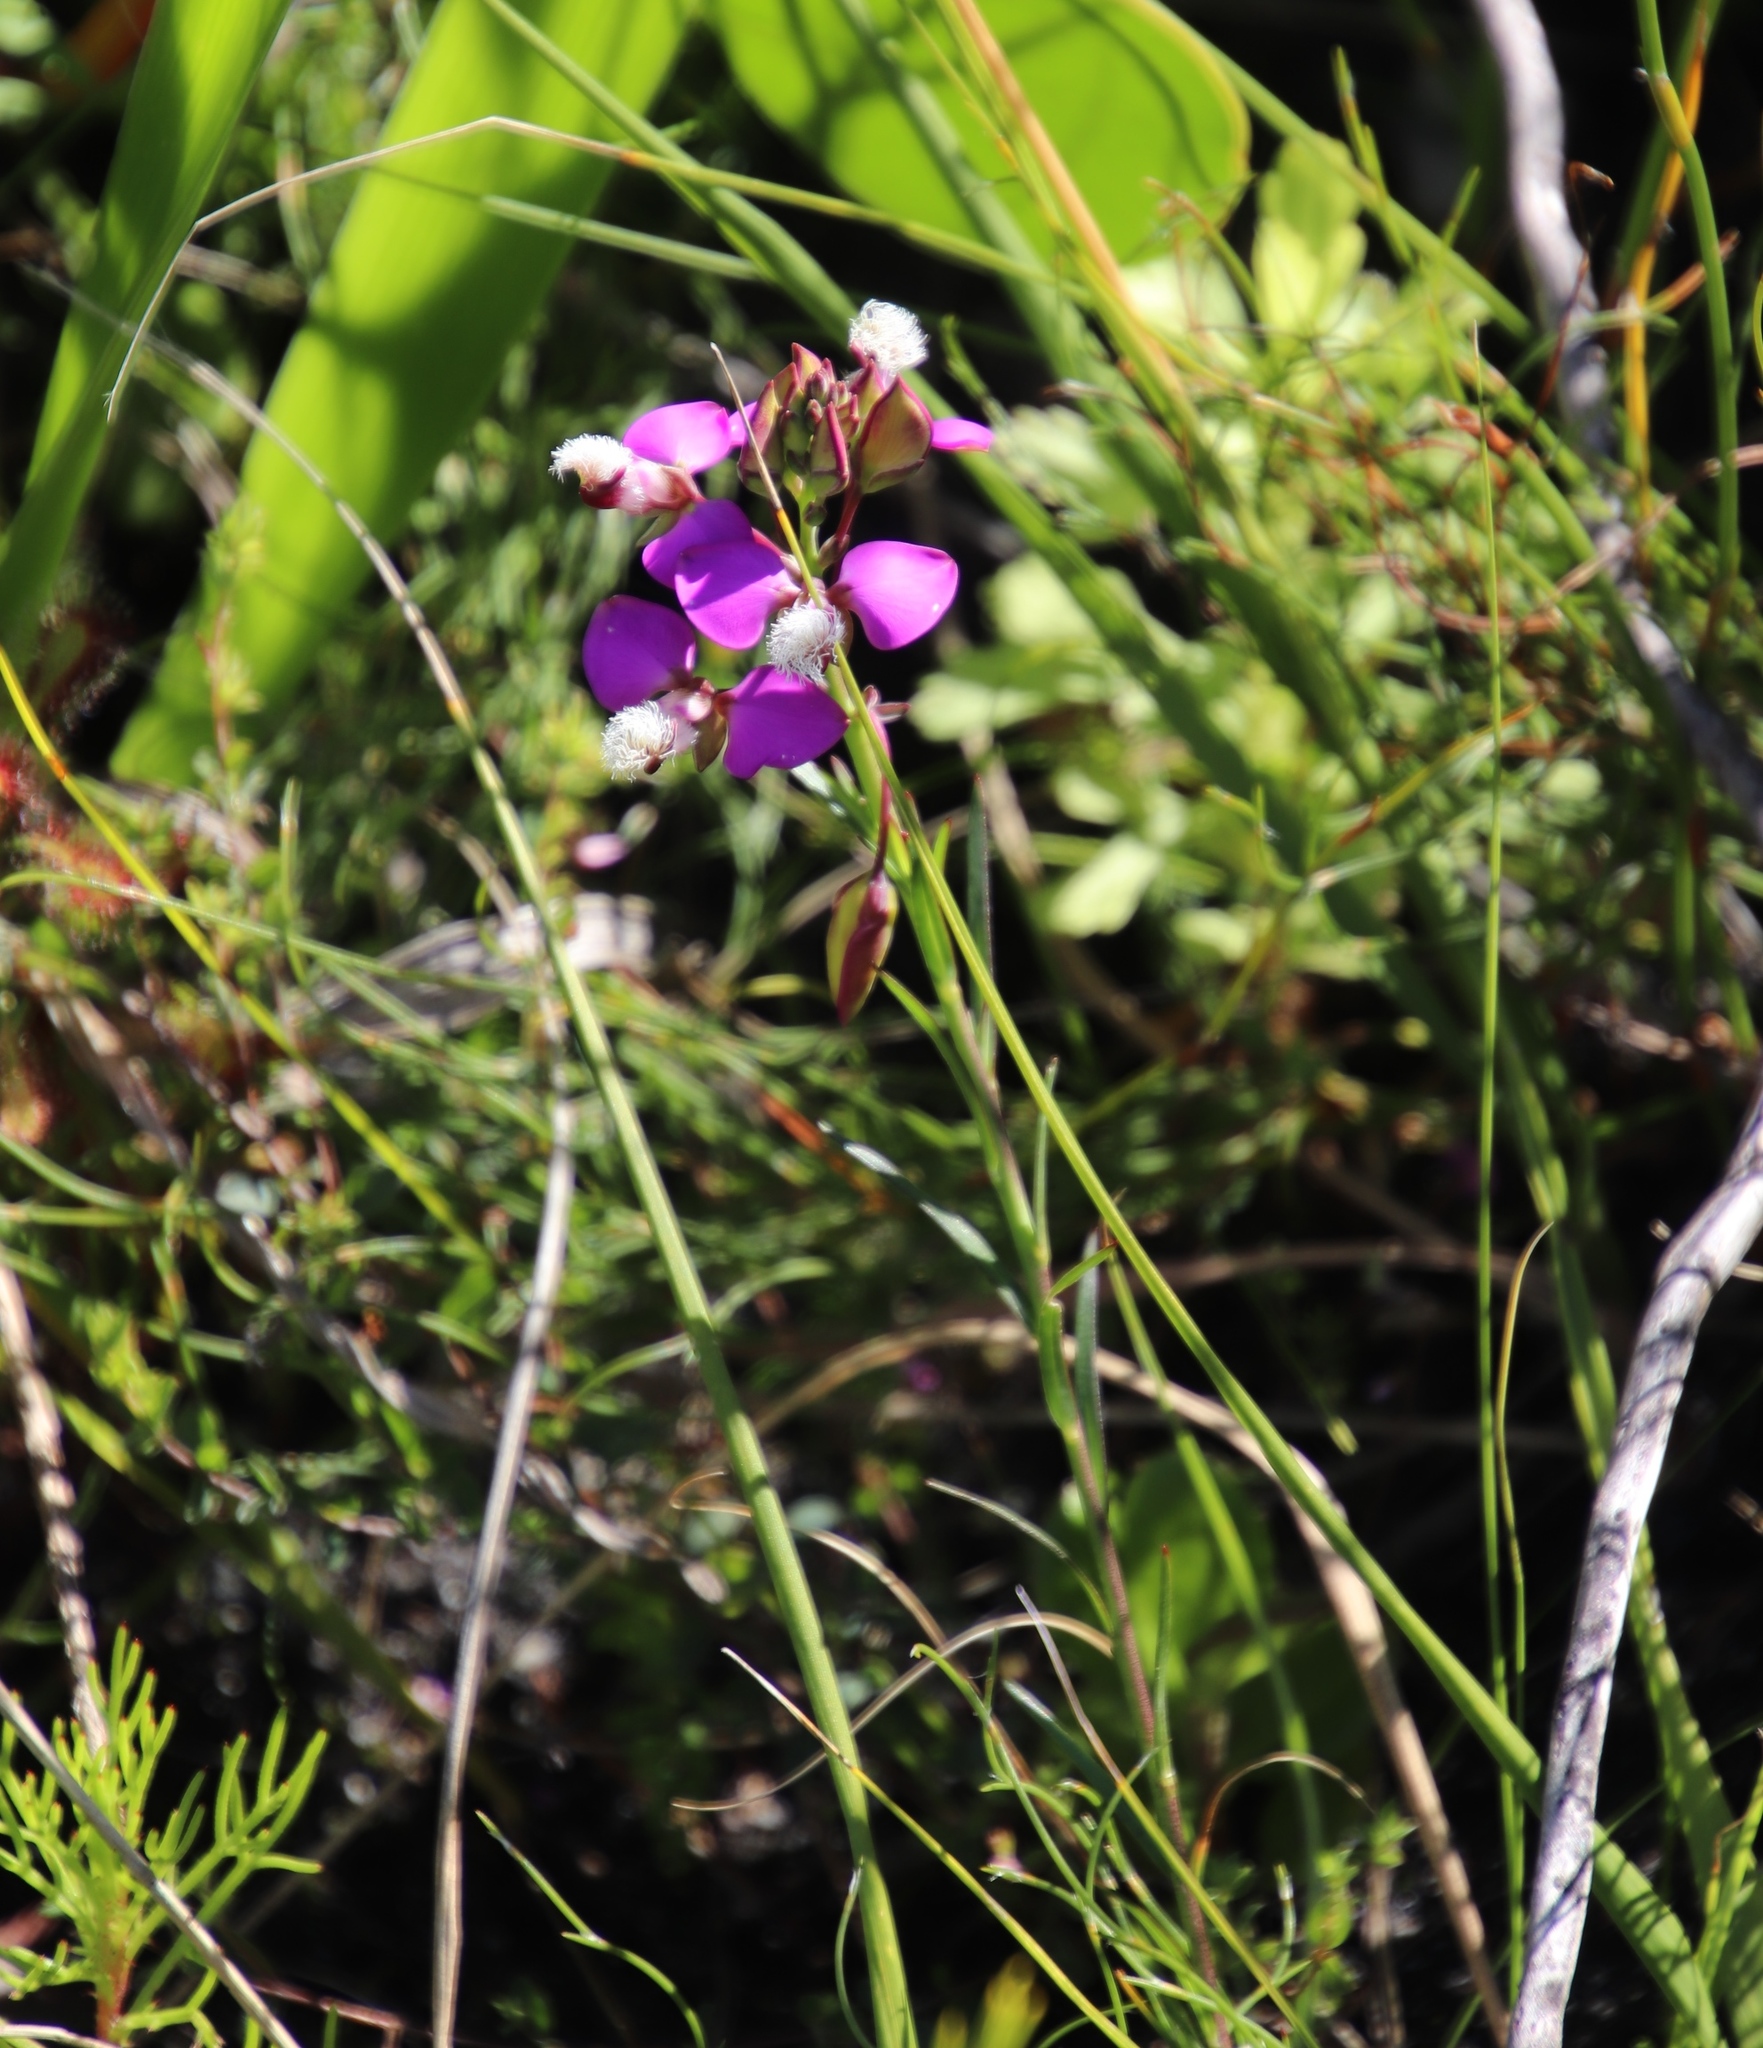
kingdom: Plantae
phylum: Tracheophyta
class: Magnoliopsida
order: Fabales
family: Polygalaceae
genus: Polygala
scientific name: Polygala bracteolata
